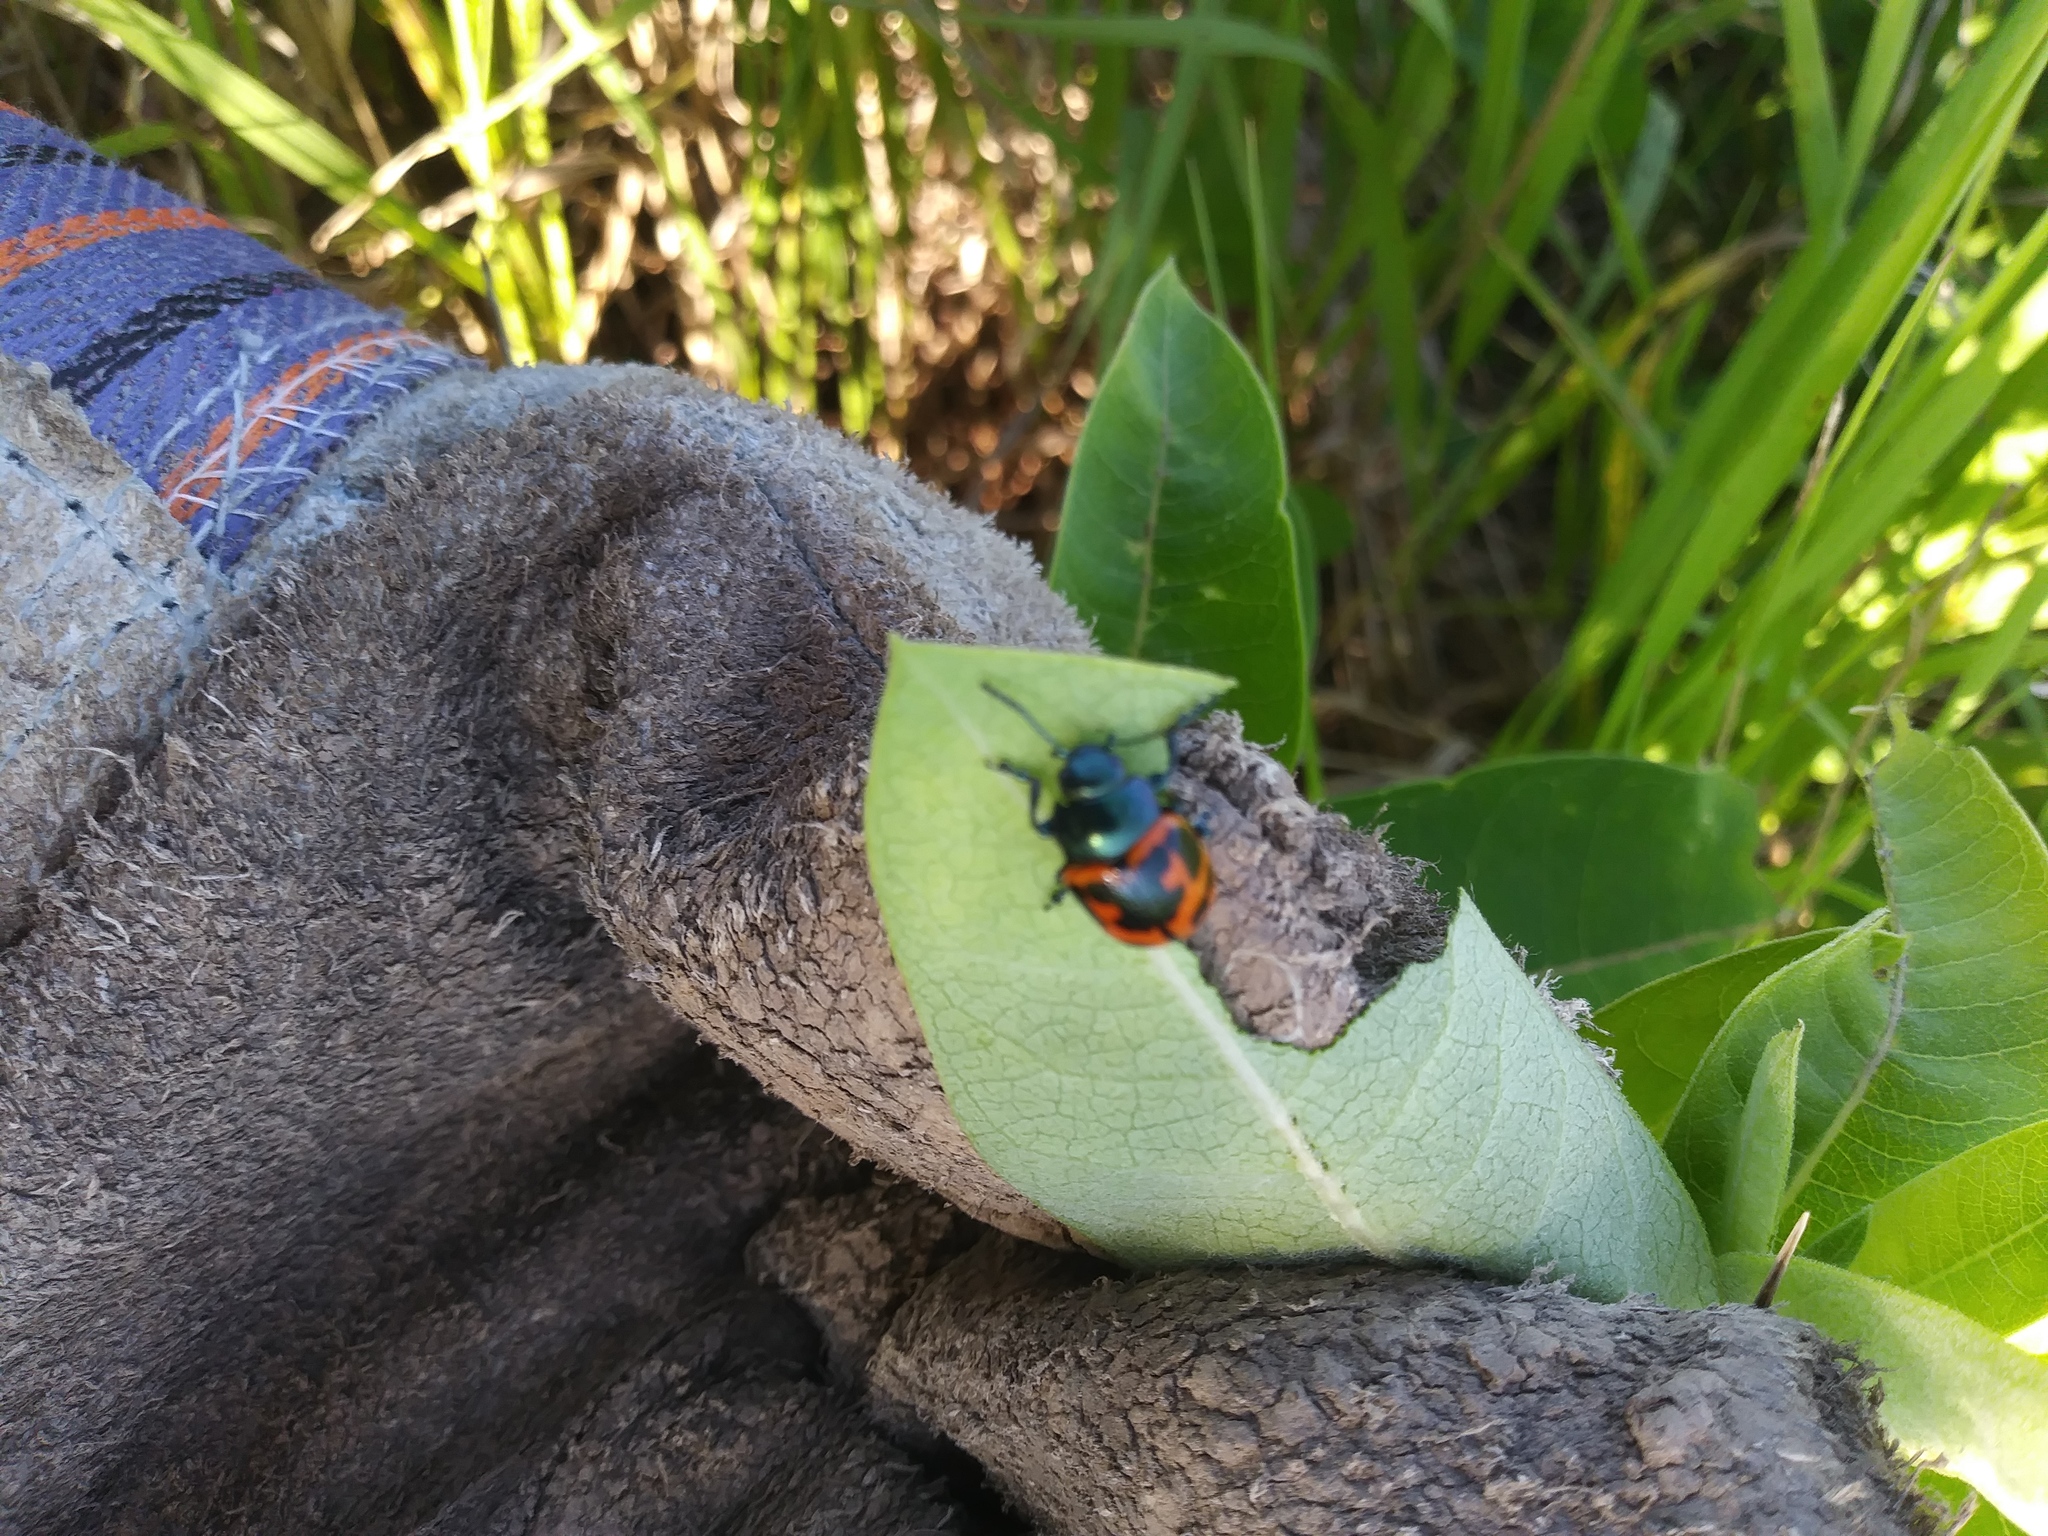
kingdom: Animalia
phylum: Arthropoda
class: Insecta
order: Coleoptera
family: Chrysomelidae
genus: Labidomera
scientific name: Labidomera clivicollis
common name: Swamp milkweed leaf beetle
